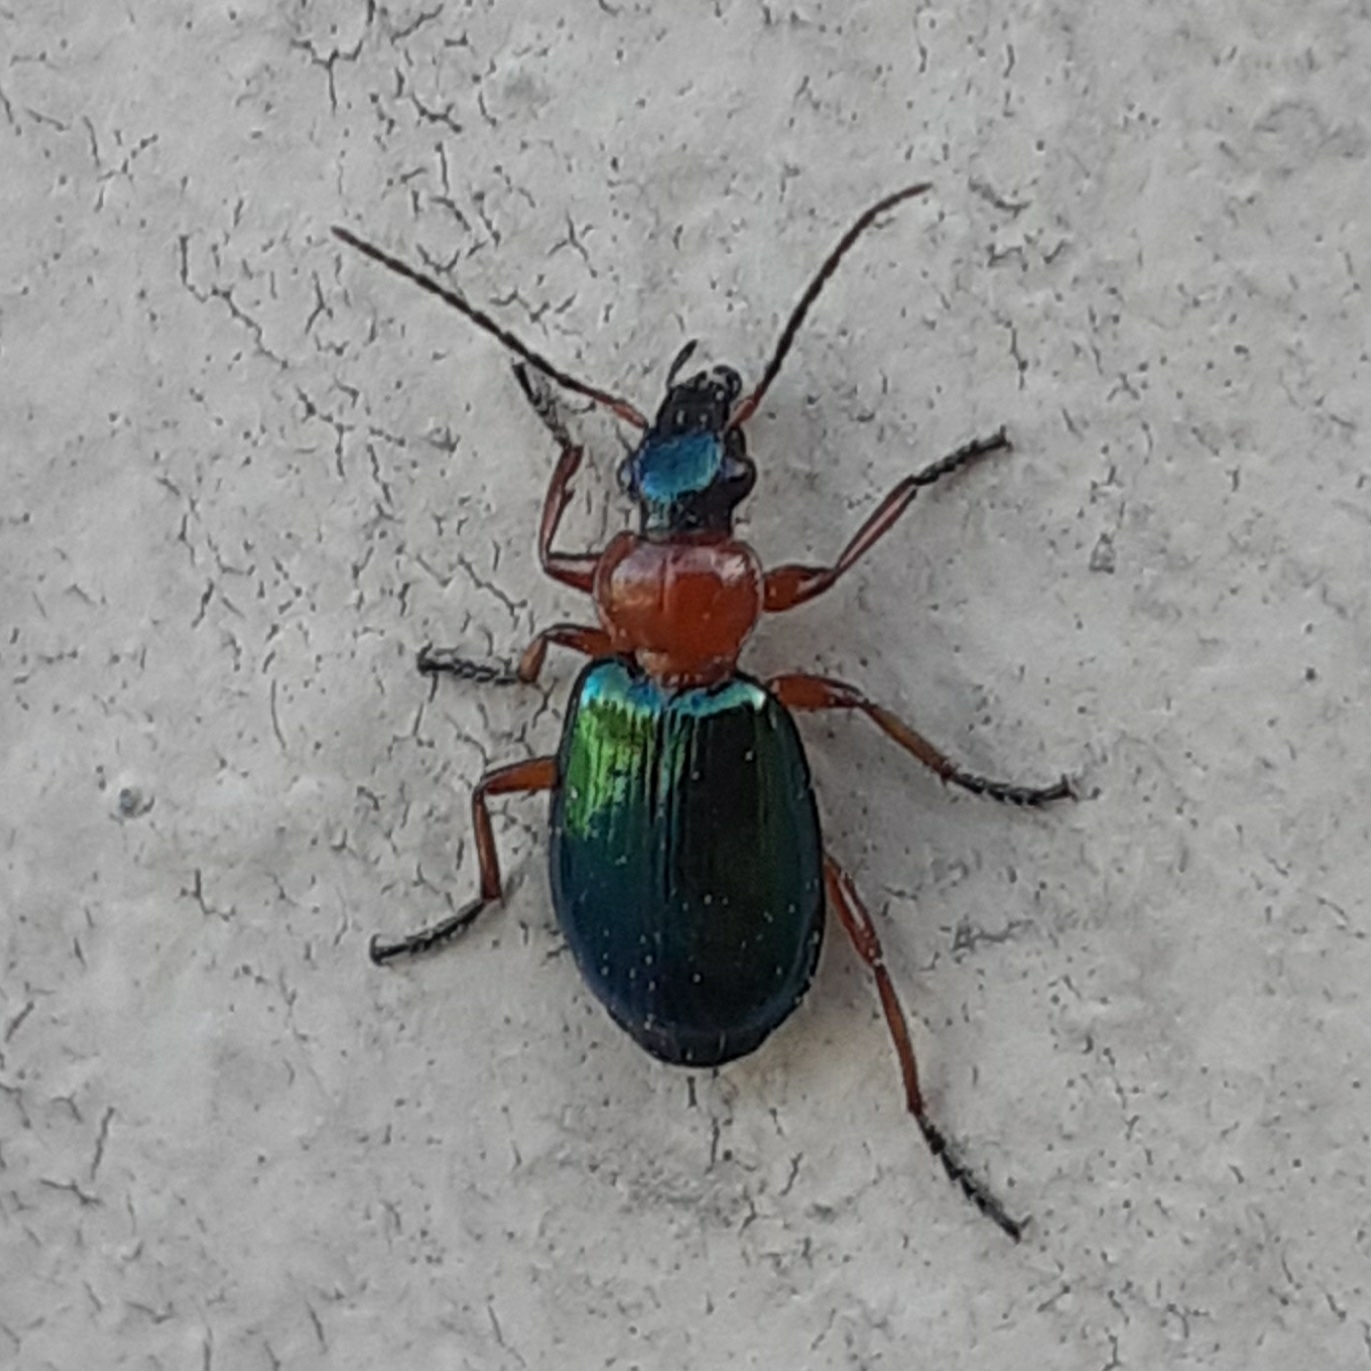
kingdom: Animalia
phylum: Arthropoda
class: Insecta
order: Coleoptera
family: Carabidae
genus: Lebia
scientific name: Lebia chlorocephala
